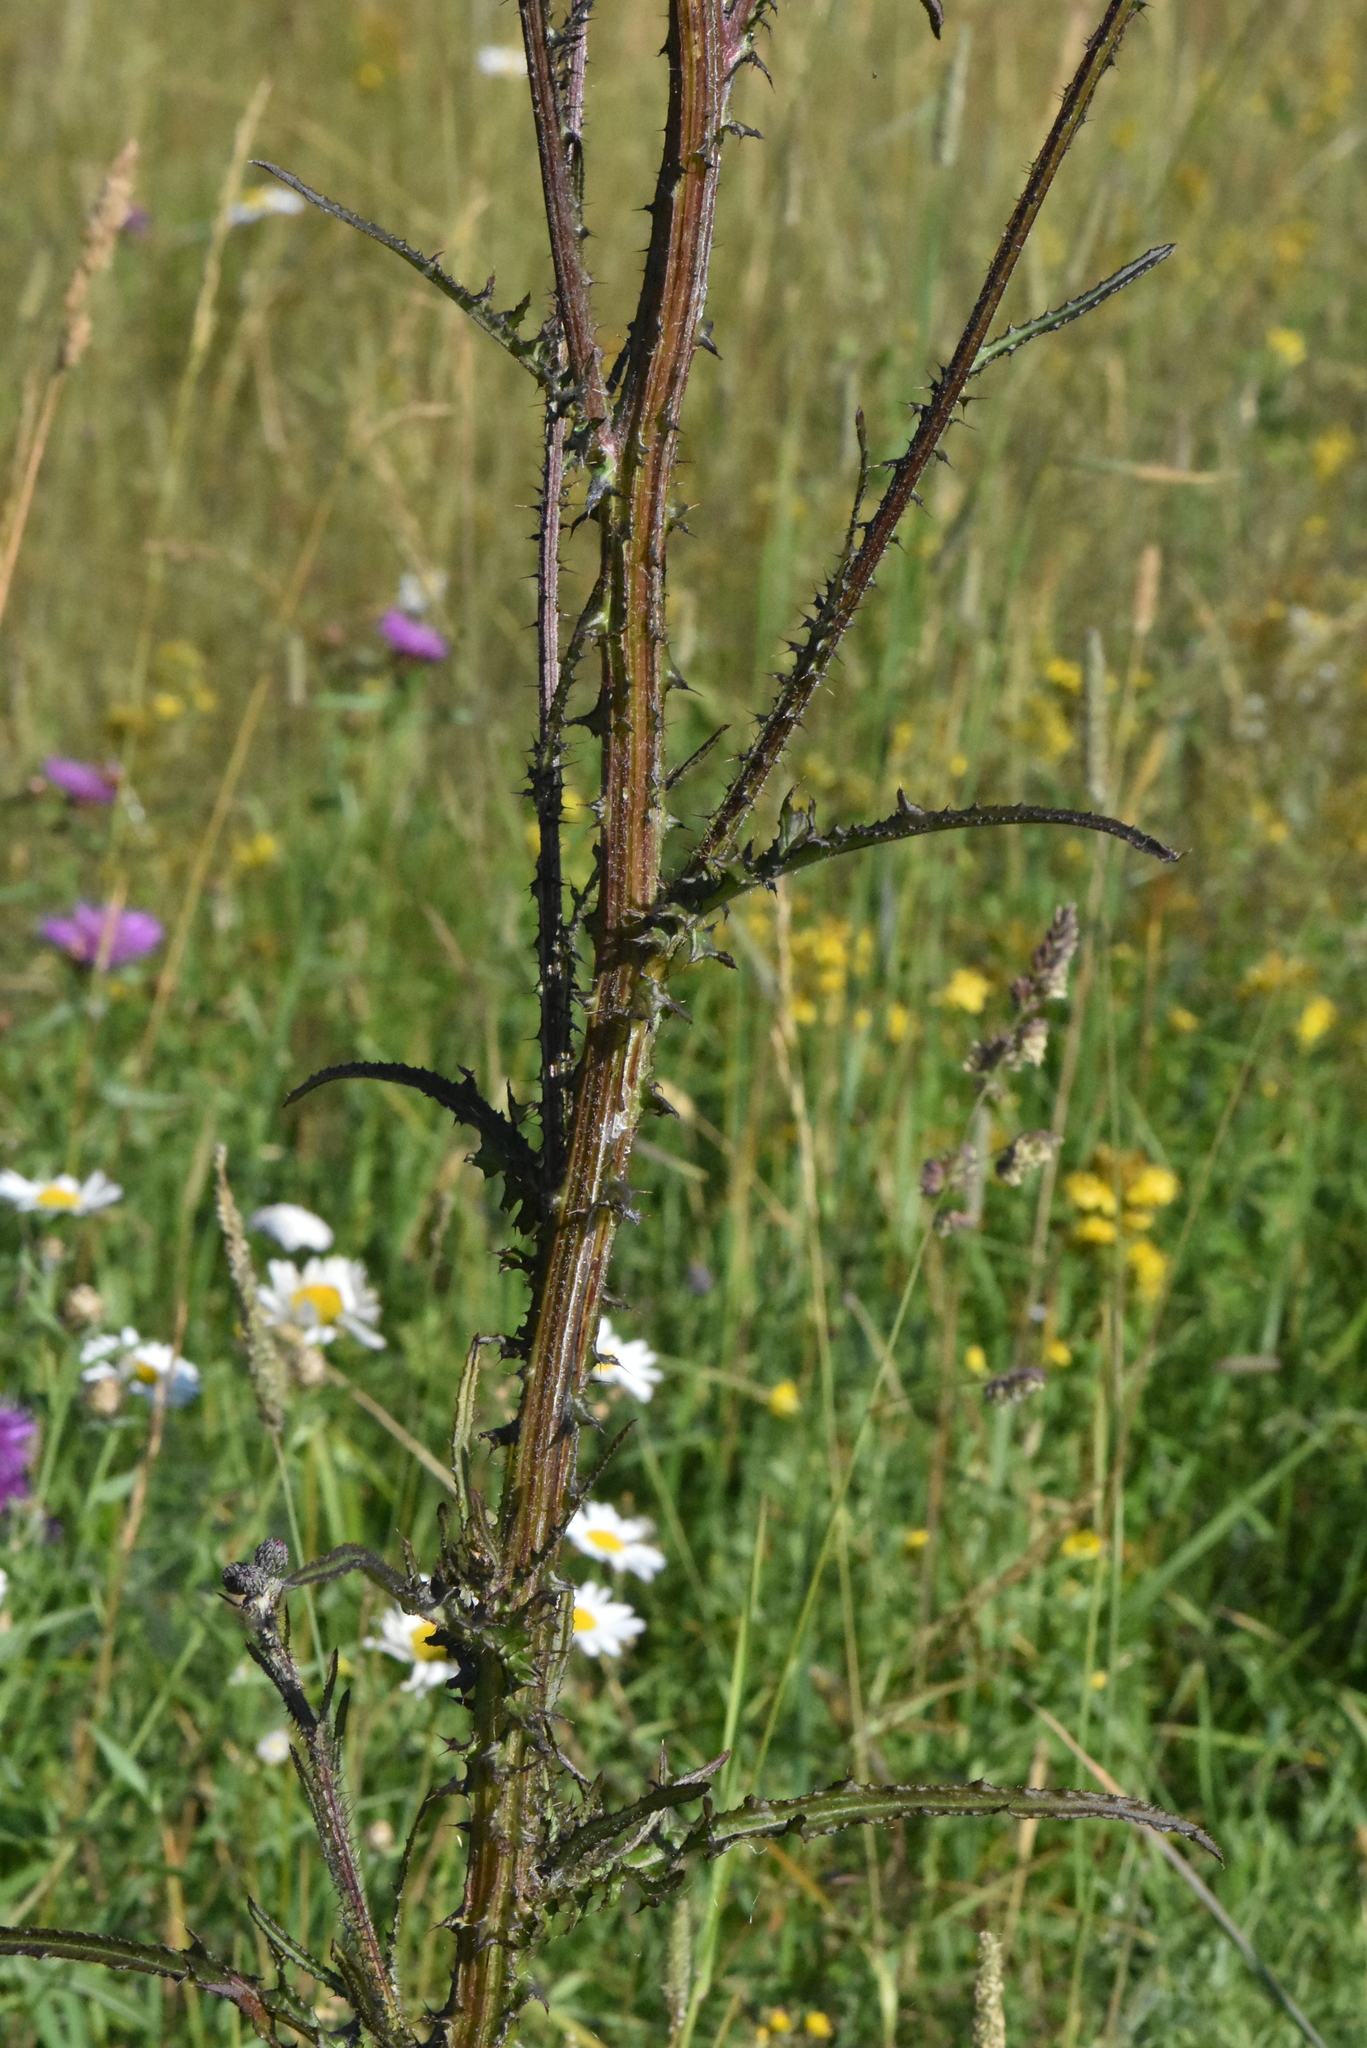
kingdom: Plantae
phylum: Tracheophyta
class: Magnoliopsida
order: Asterales
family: Asteraceae
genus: Cirsium
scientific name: Cirsium palustre
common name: Marsh thistle
